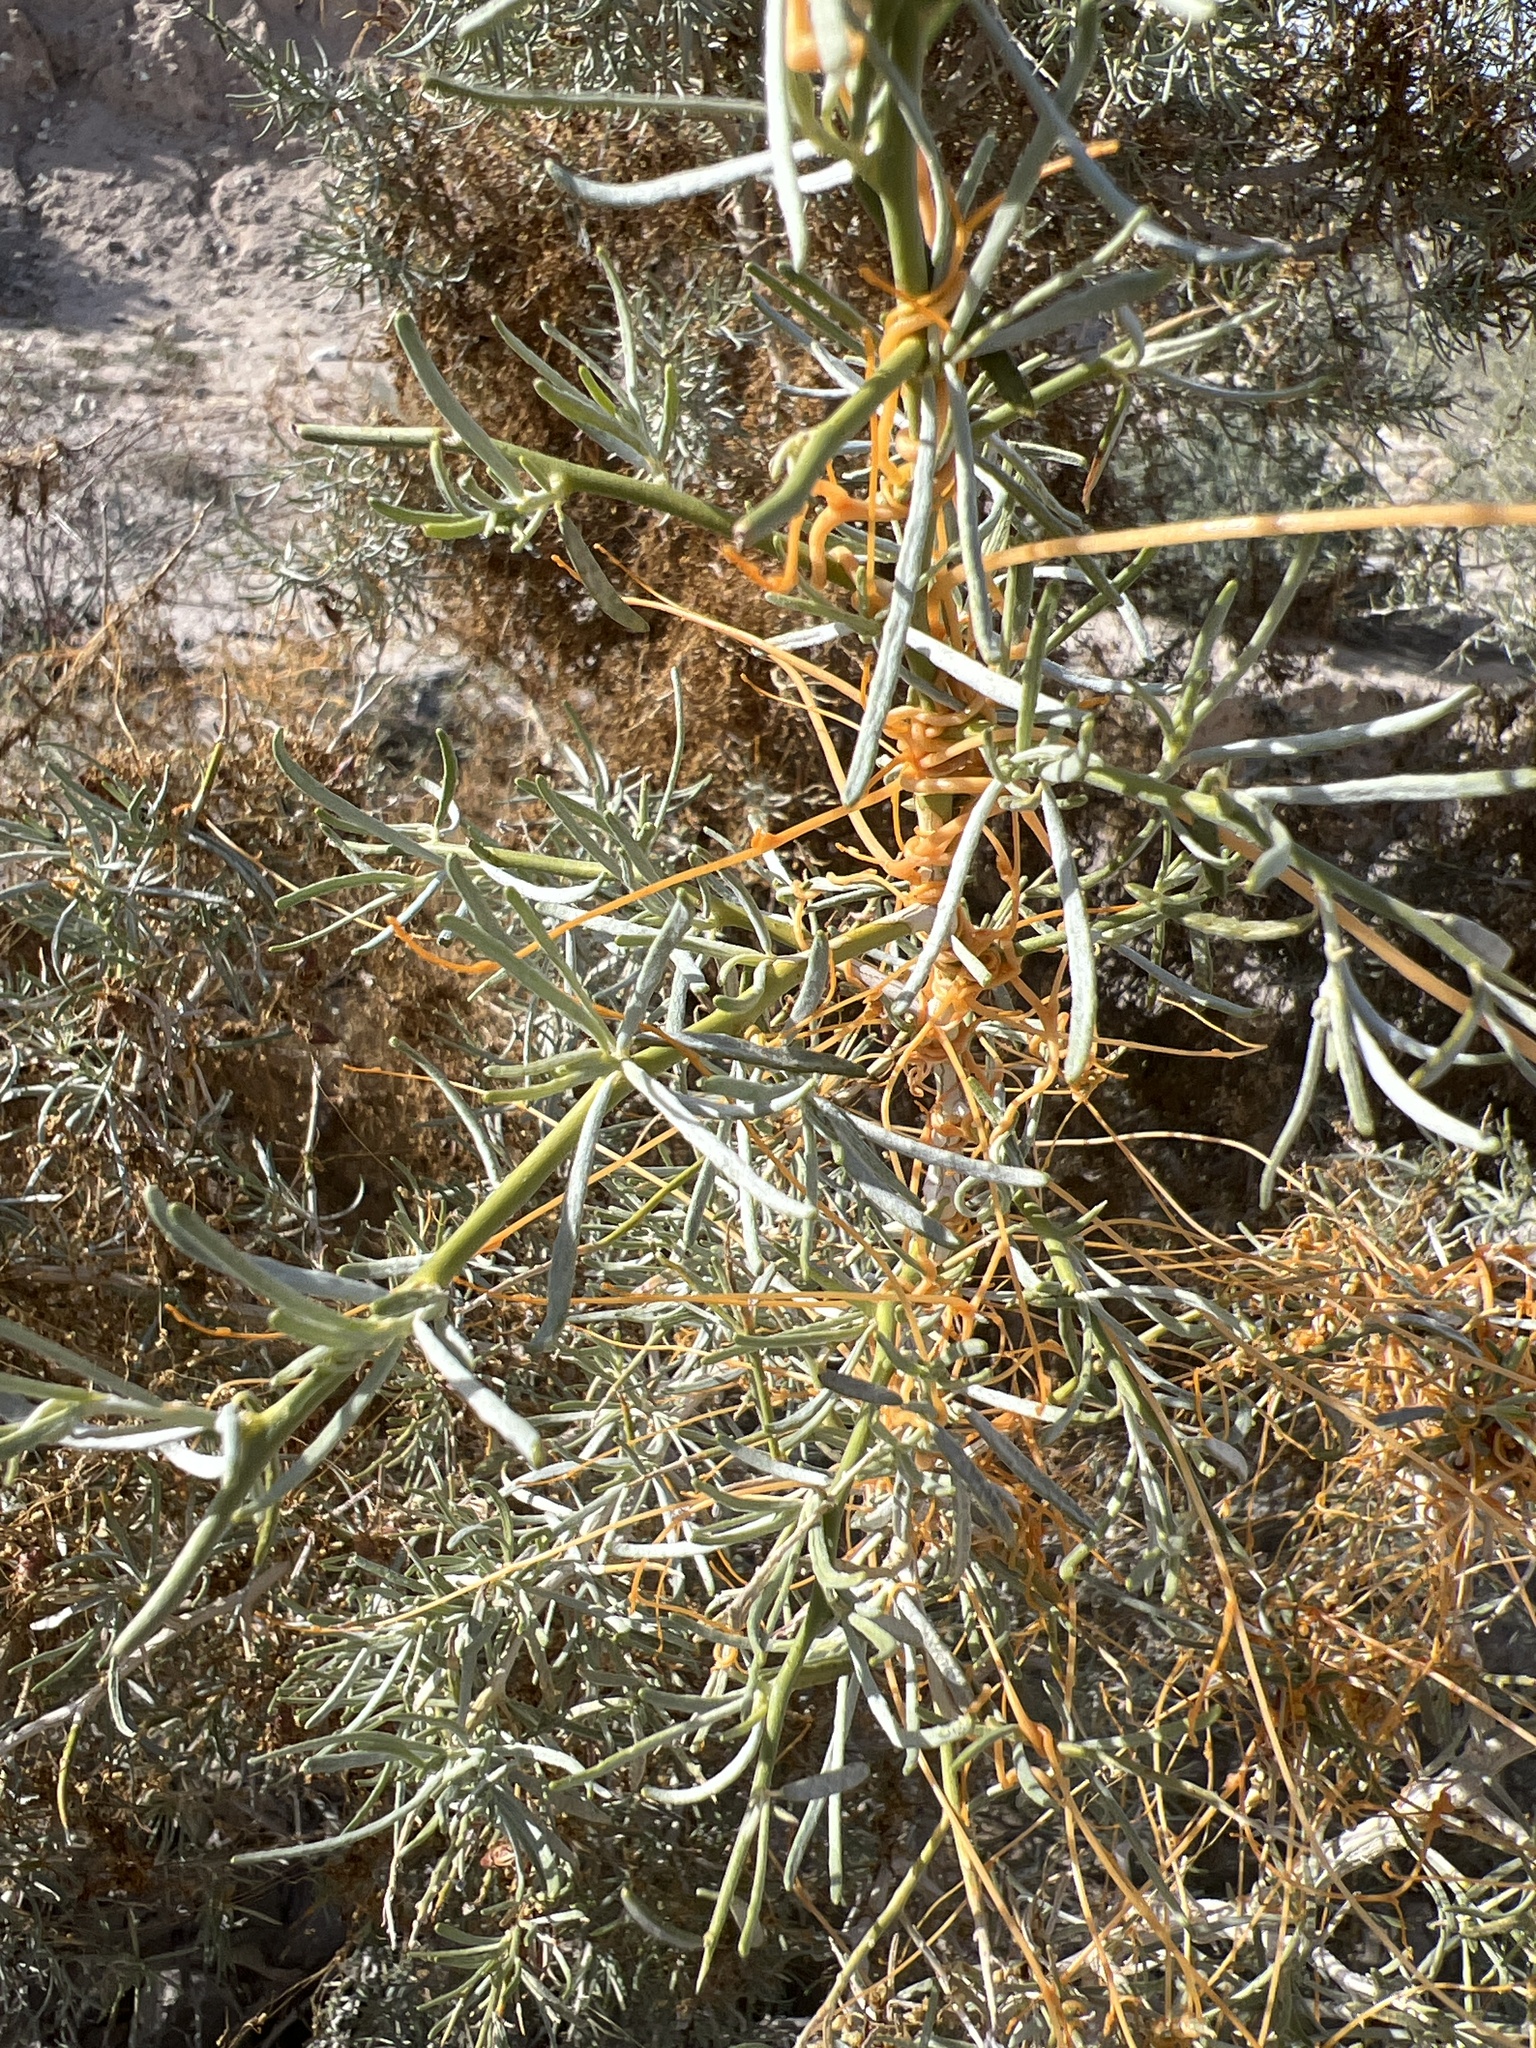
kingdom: Plantae
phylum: Tracheophyta
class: Magnoliopsida
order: Solanales
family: Convolvulaceae
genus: Cuscuta
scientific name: Cuscuta psorothamnensis
